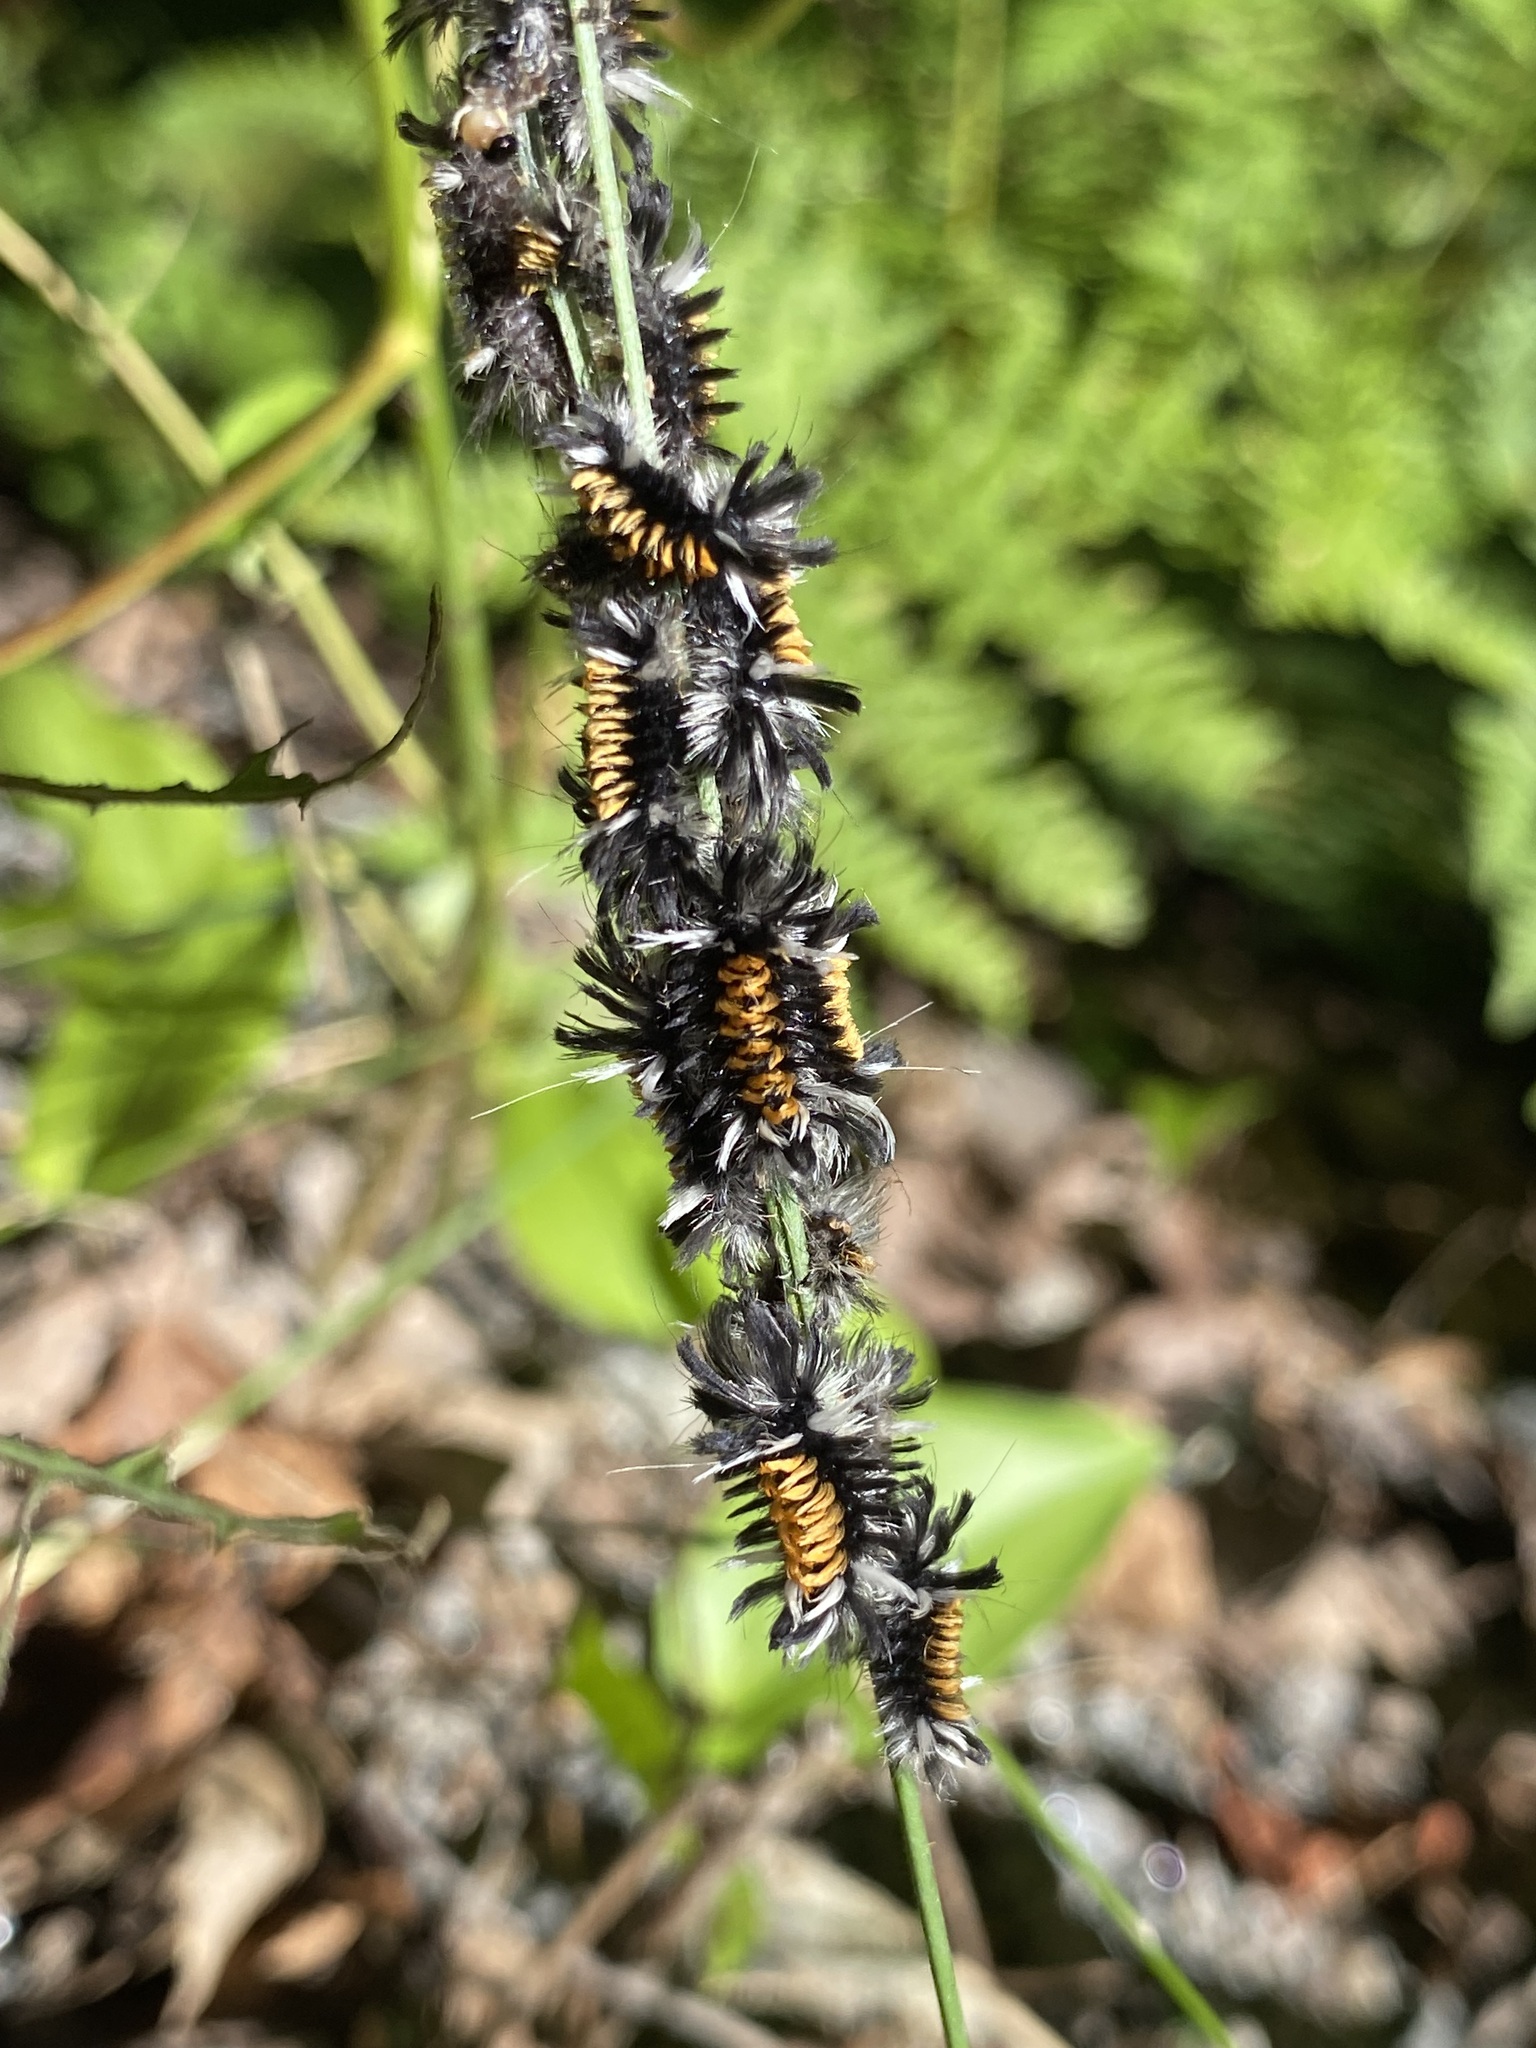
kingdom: Animalia
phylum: Arthropoda
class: Insecta
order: Lepidoptera
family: Erebidae
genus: Euchaetes
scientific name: Euchaetes egle
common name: Milkweed tussock moth
